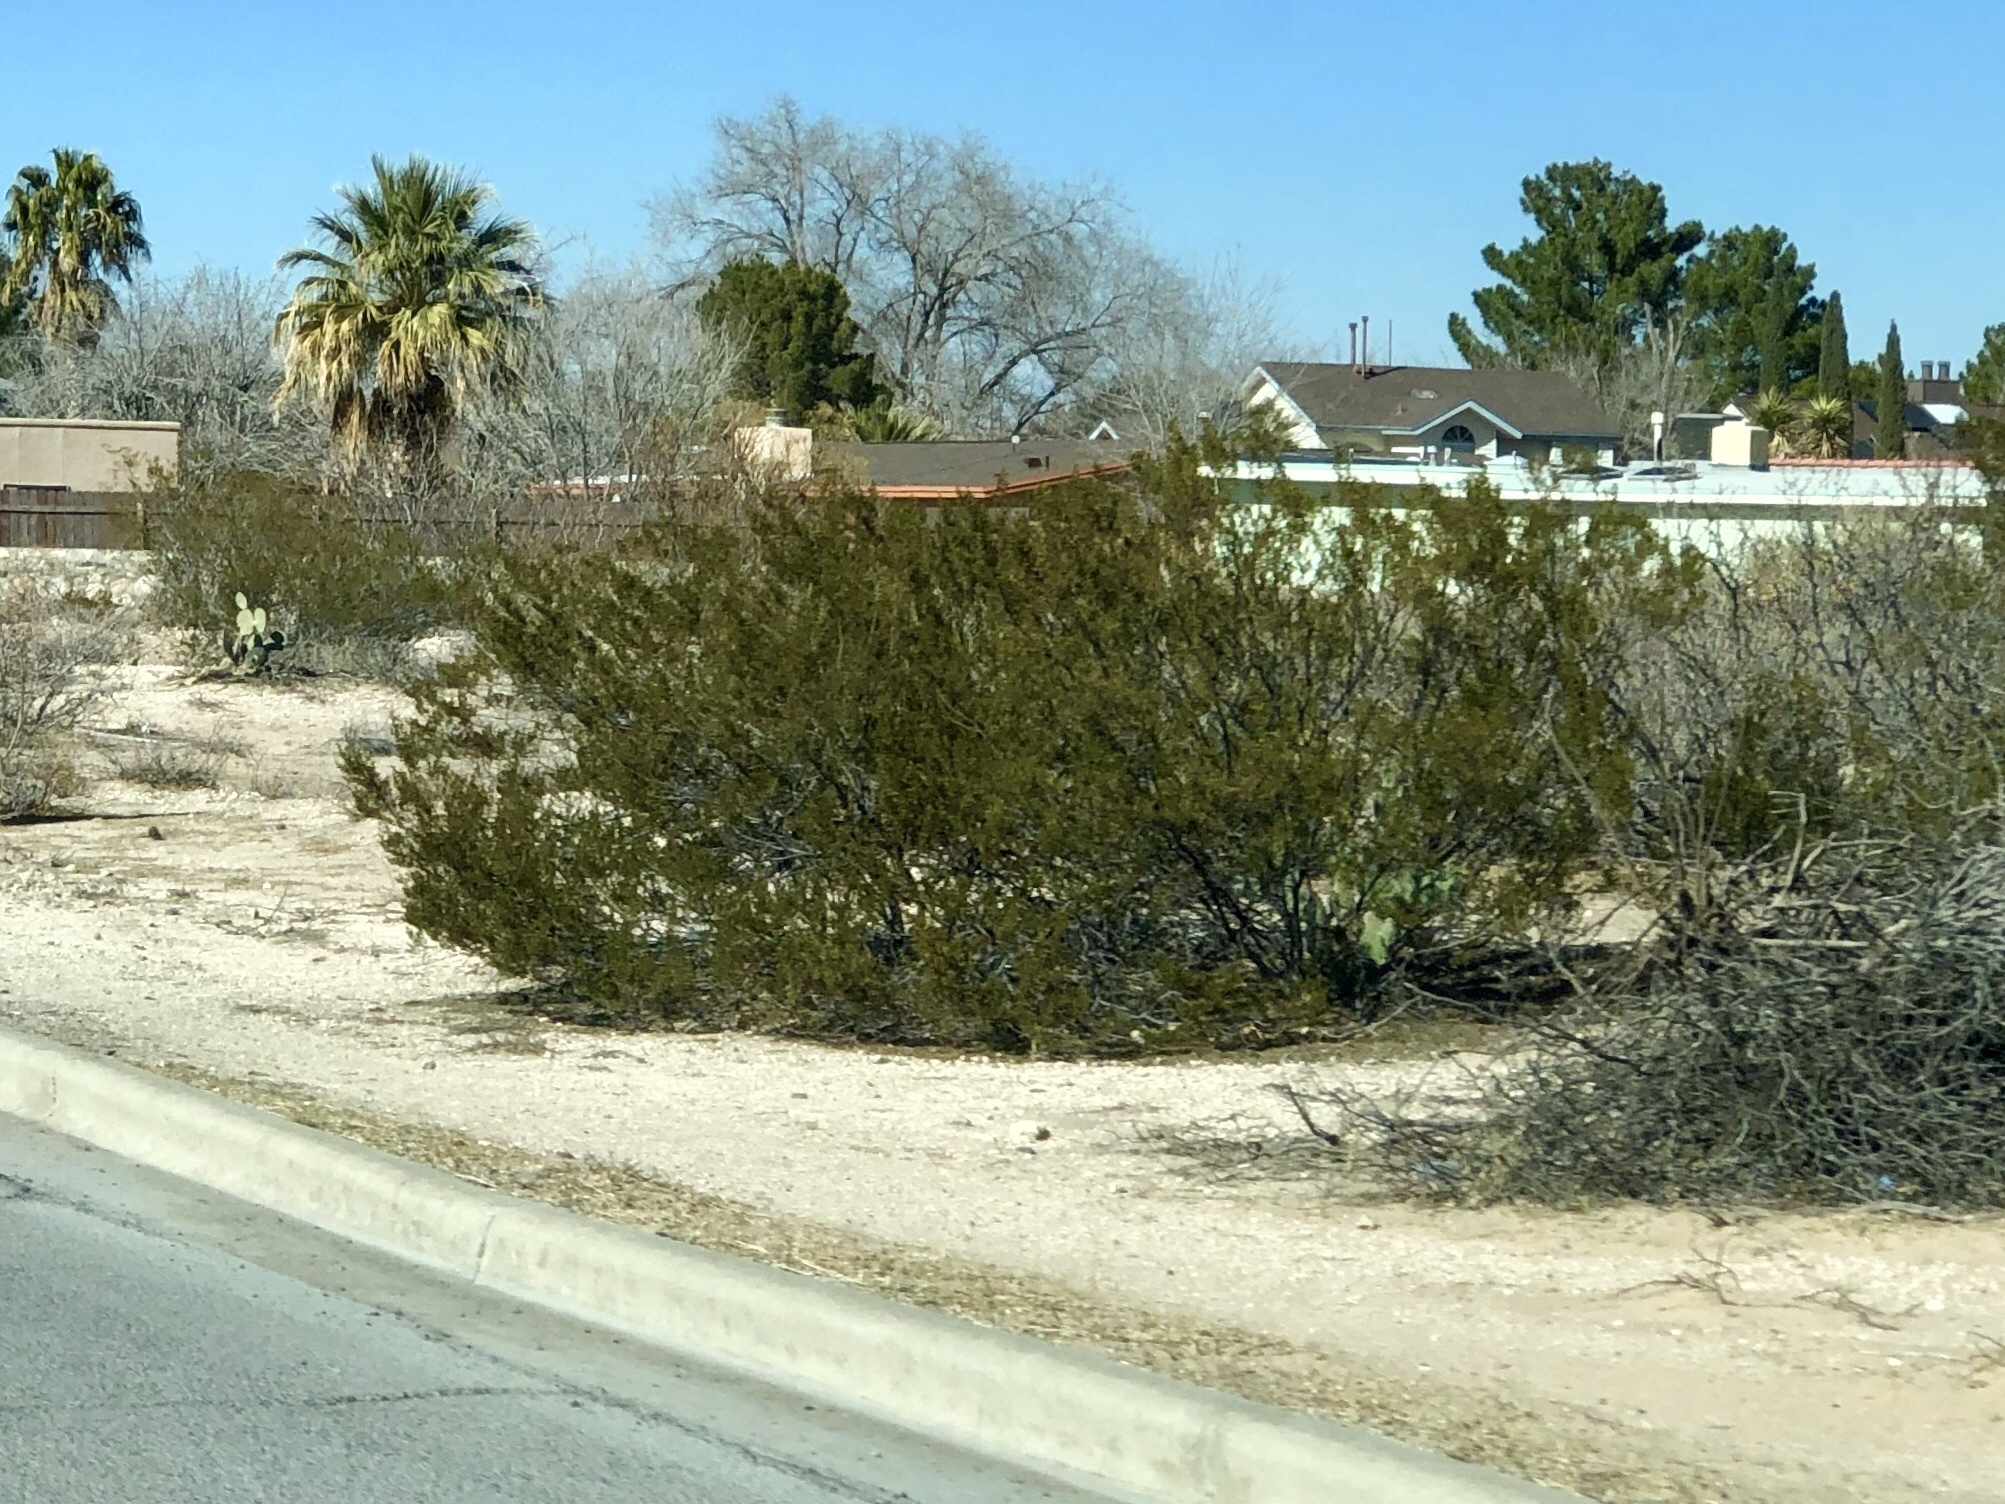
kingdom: Plantae
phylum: Tracheophyta
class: Magnoliopsida
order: Zygophyllales
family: Zygophyllaceae
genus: Larrea
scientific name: Larrea tridentata
